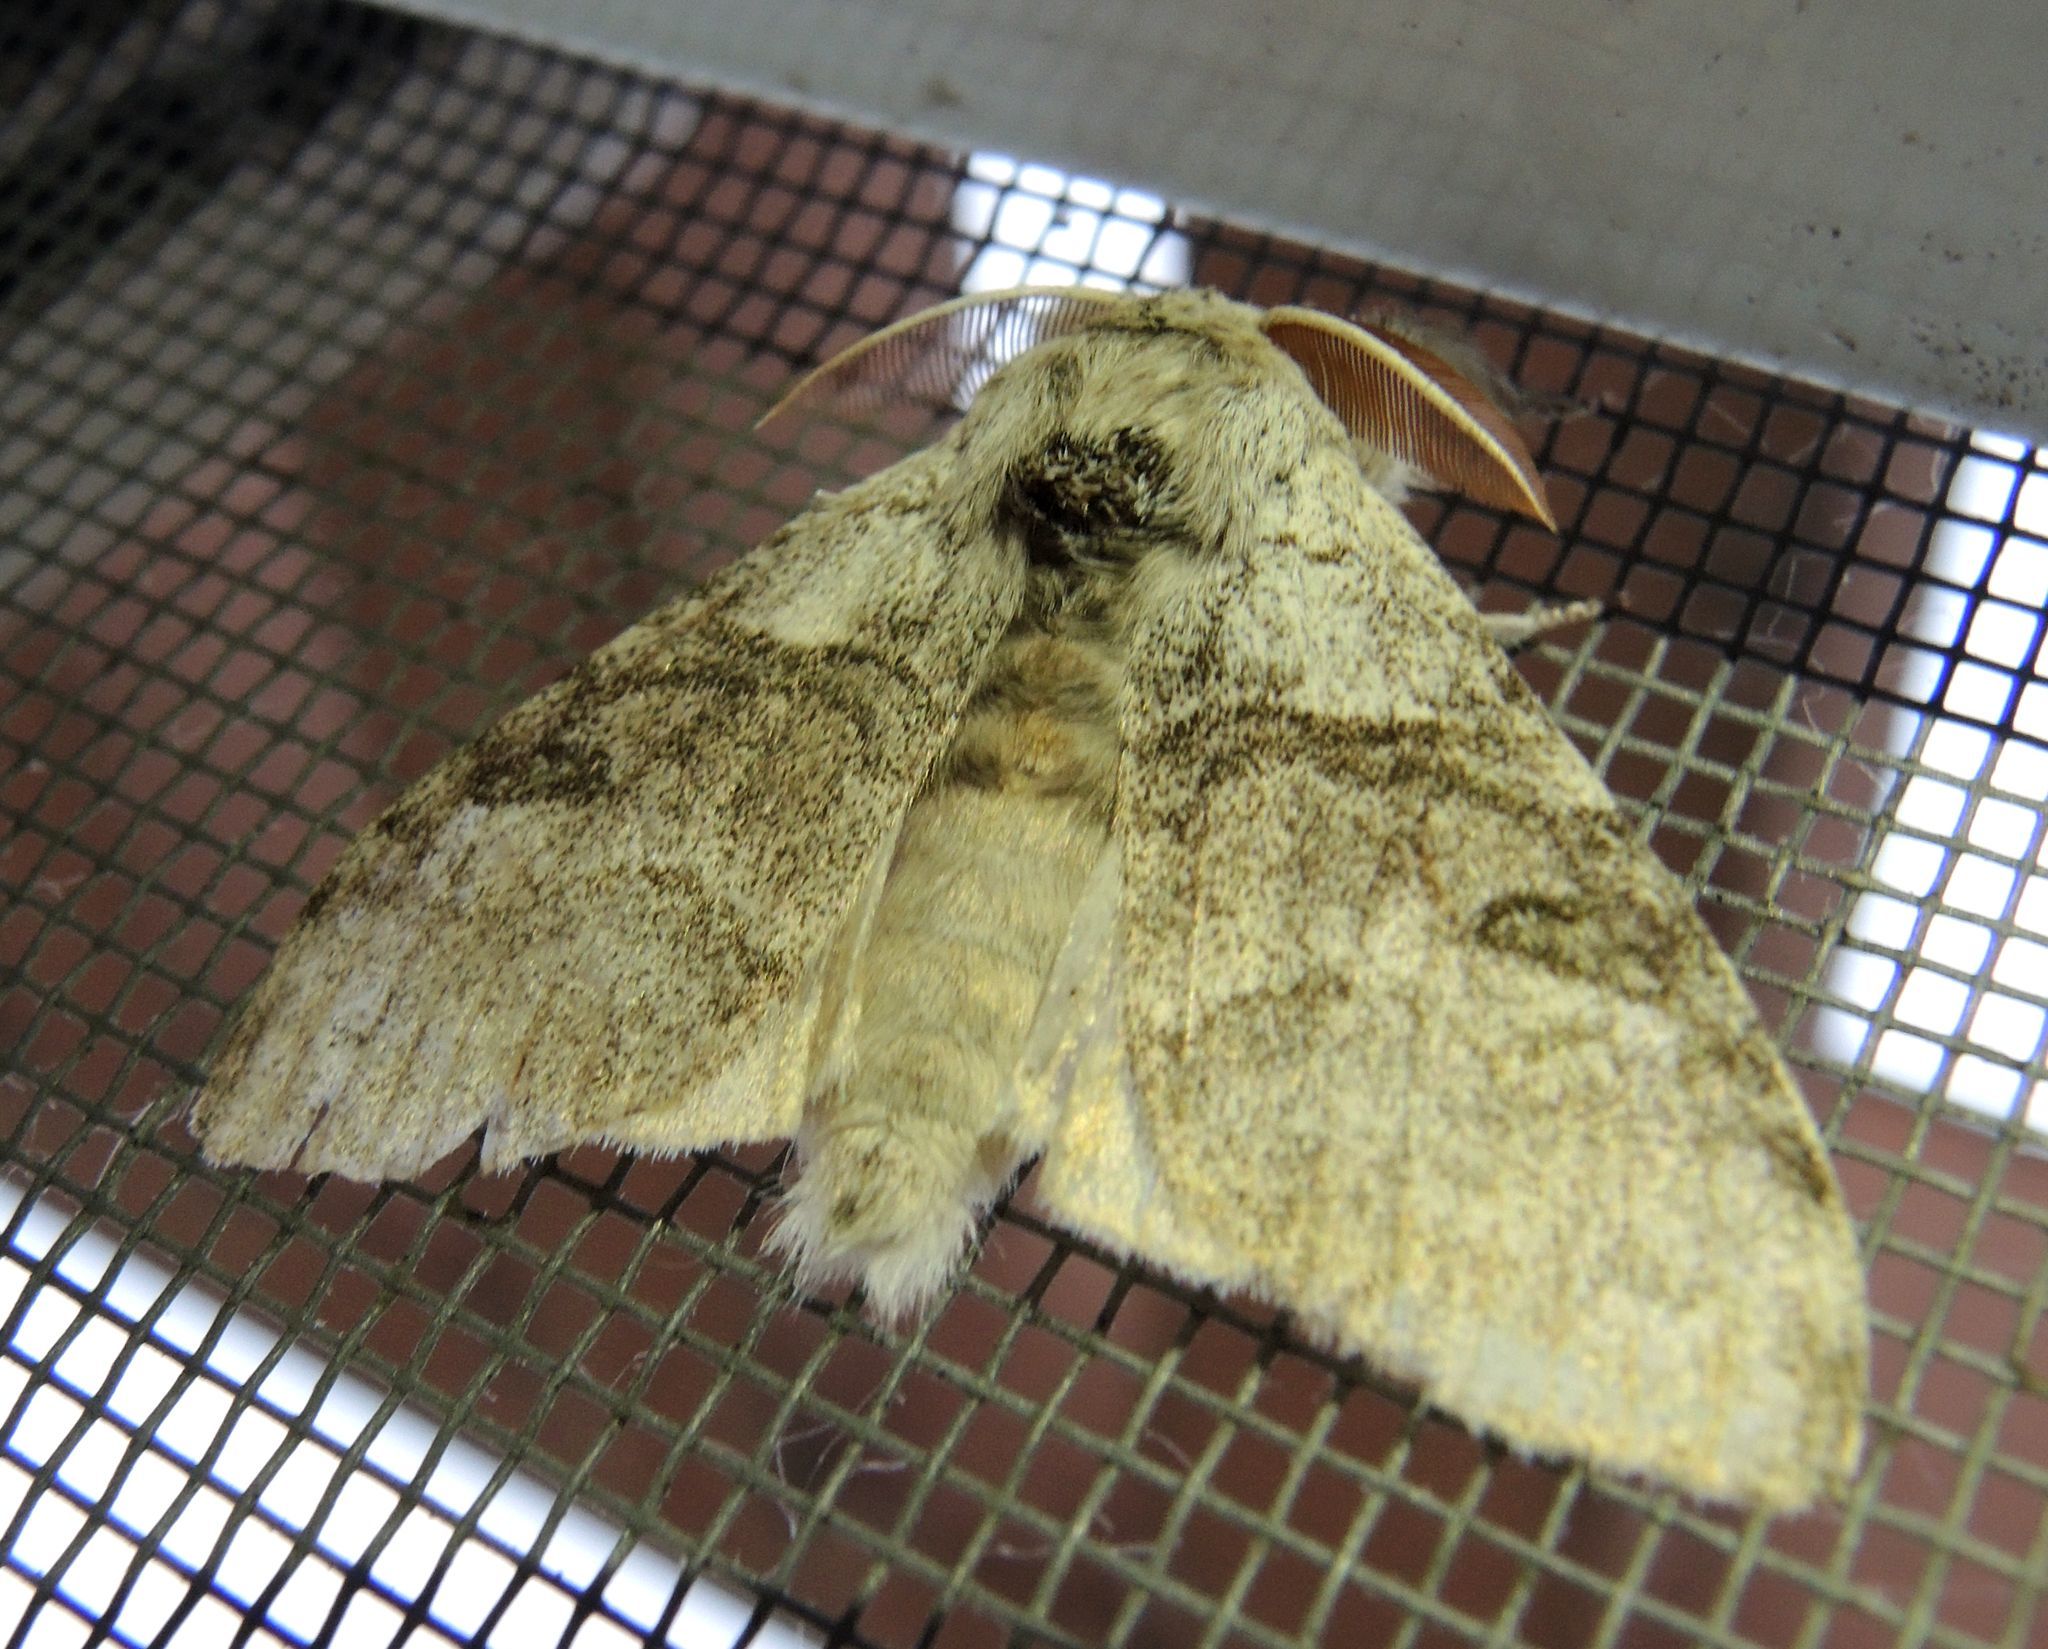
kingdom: Animalia
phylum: Arthropoda
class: Insecta
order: Lepidoptera
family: Erebidae
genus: Calliteara
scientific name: Calliteara pudibunda
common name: Pale tussock
